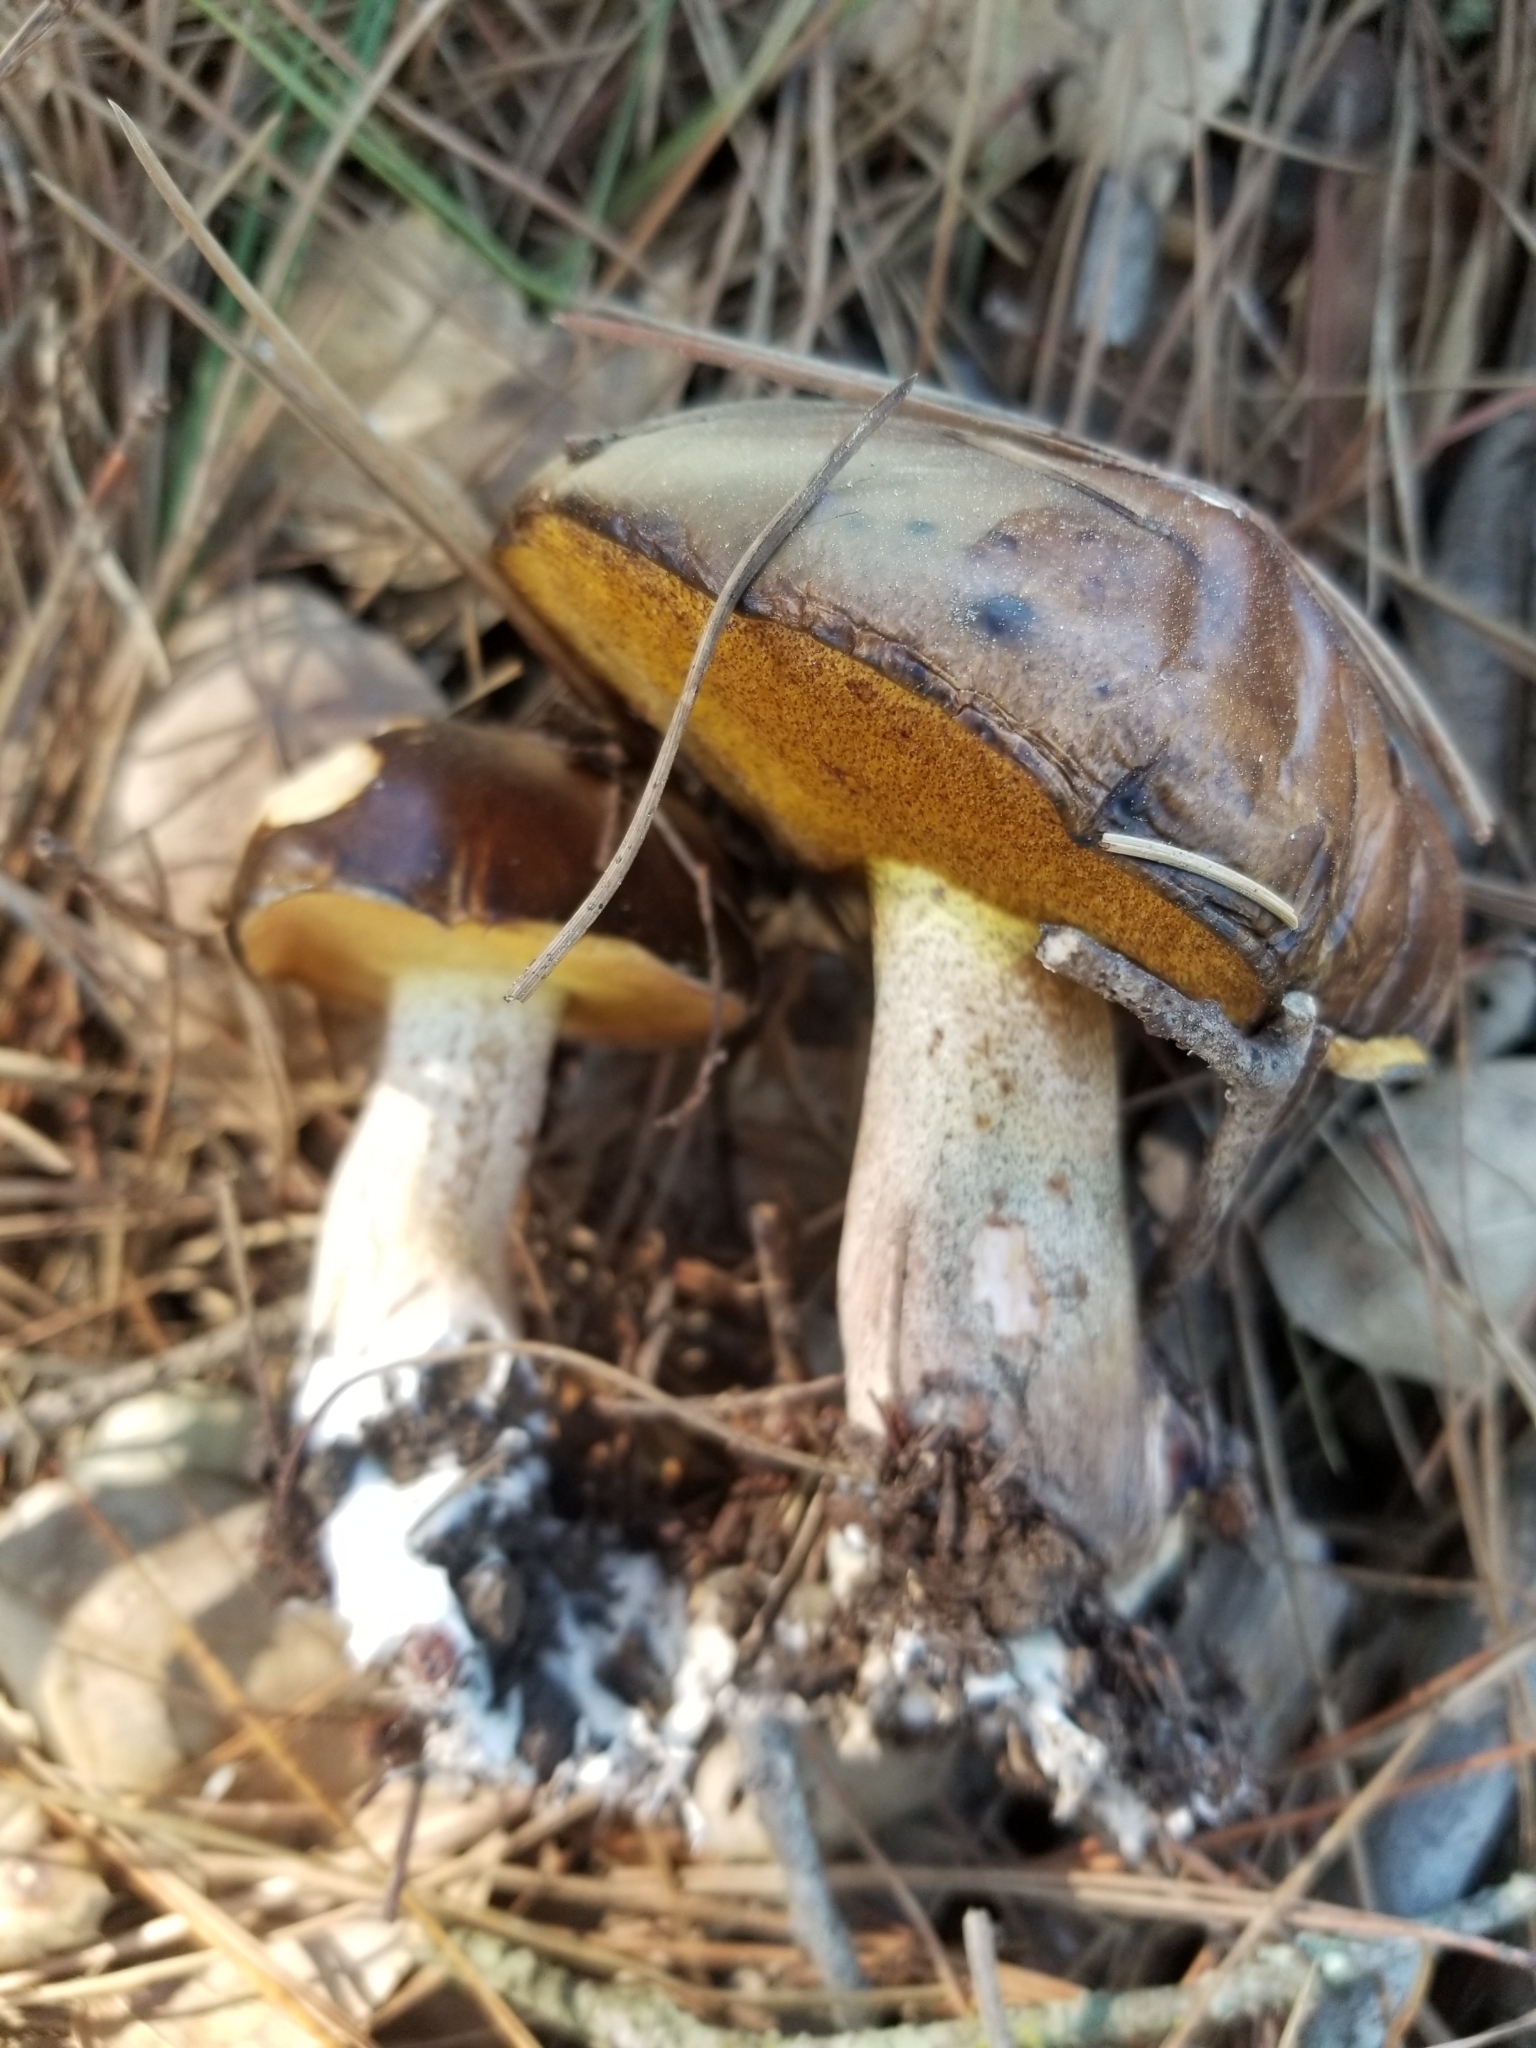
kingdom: Fungi
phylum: Basidiomycota
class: Agaricomycetes
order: Boletales
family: Suillaceae
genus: Suillus
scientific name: Suillus pungens
